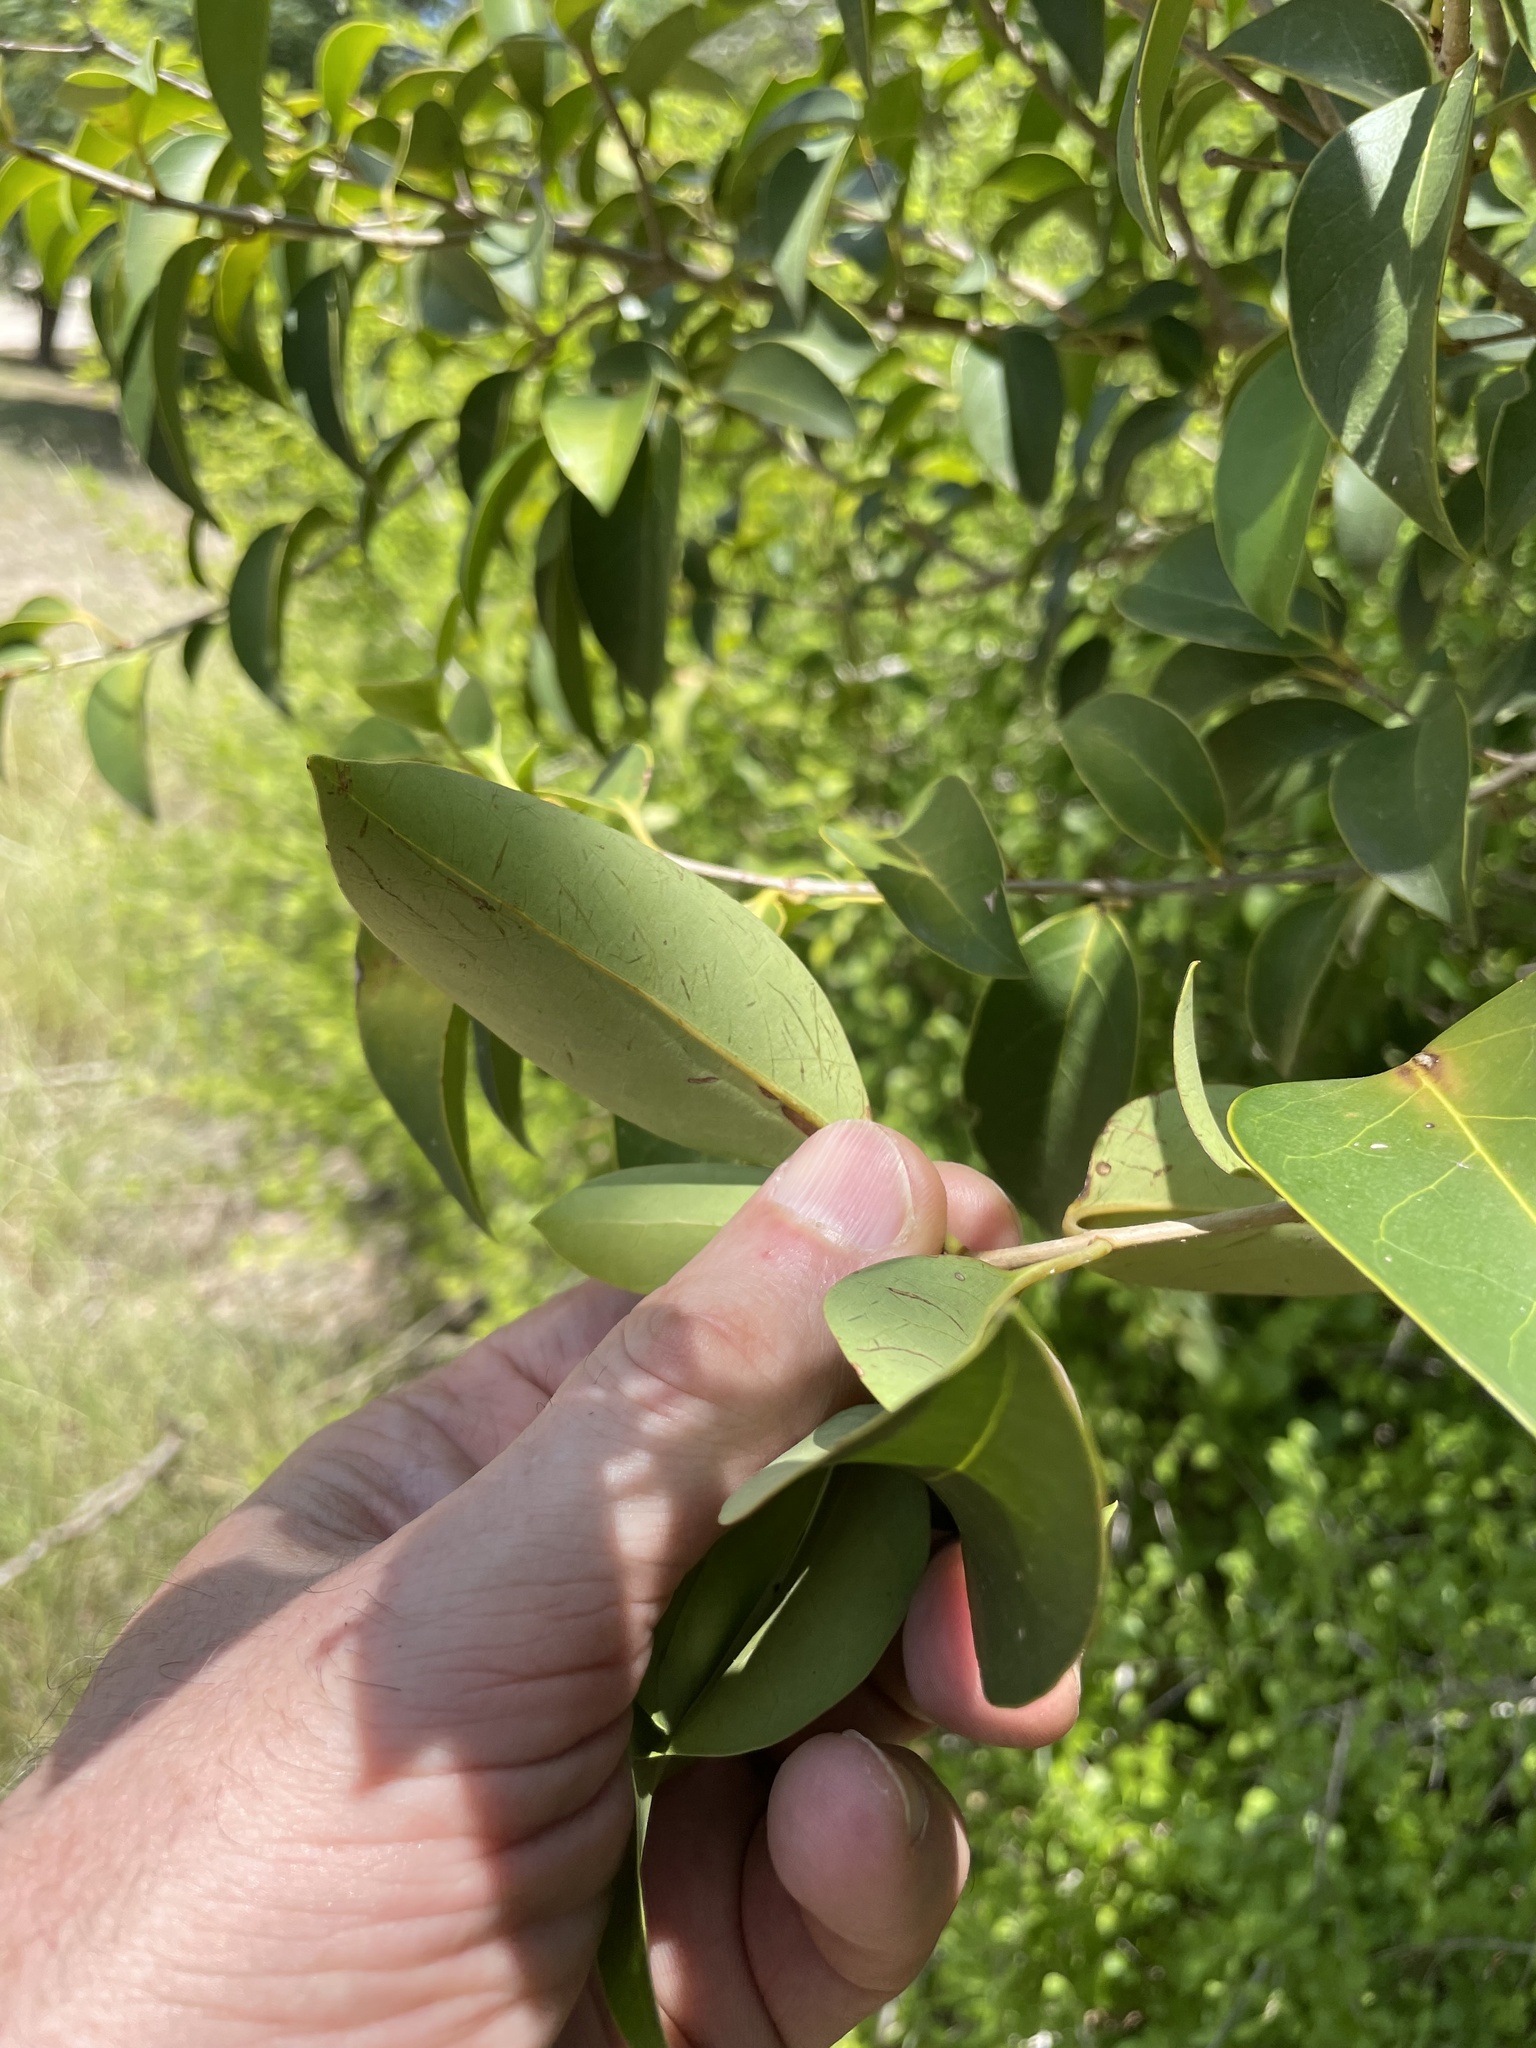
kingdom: Plantae
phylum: Tracheophyta
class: Magnoliopsida
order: Lamiales
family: Oleaceae
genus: Ligustrum
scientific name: Ligustrum lucidum
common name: Glossy privet
